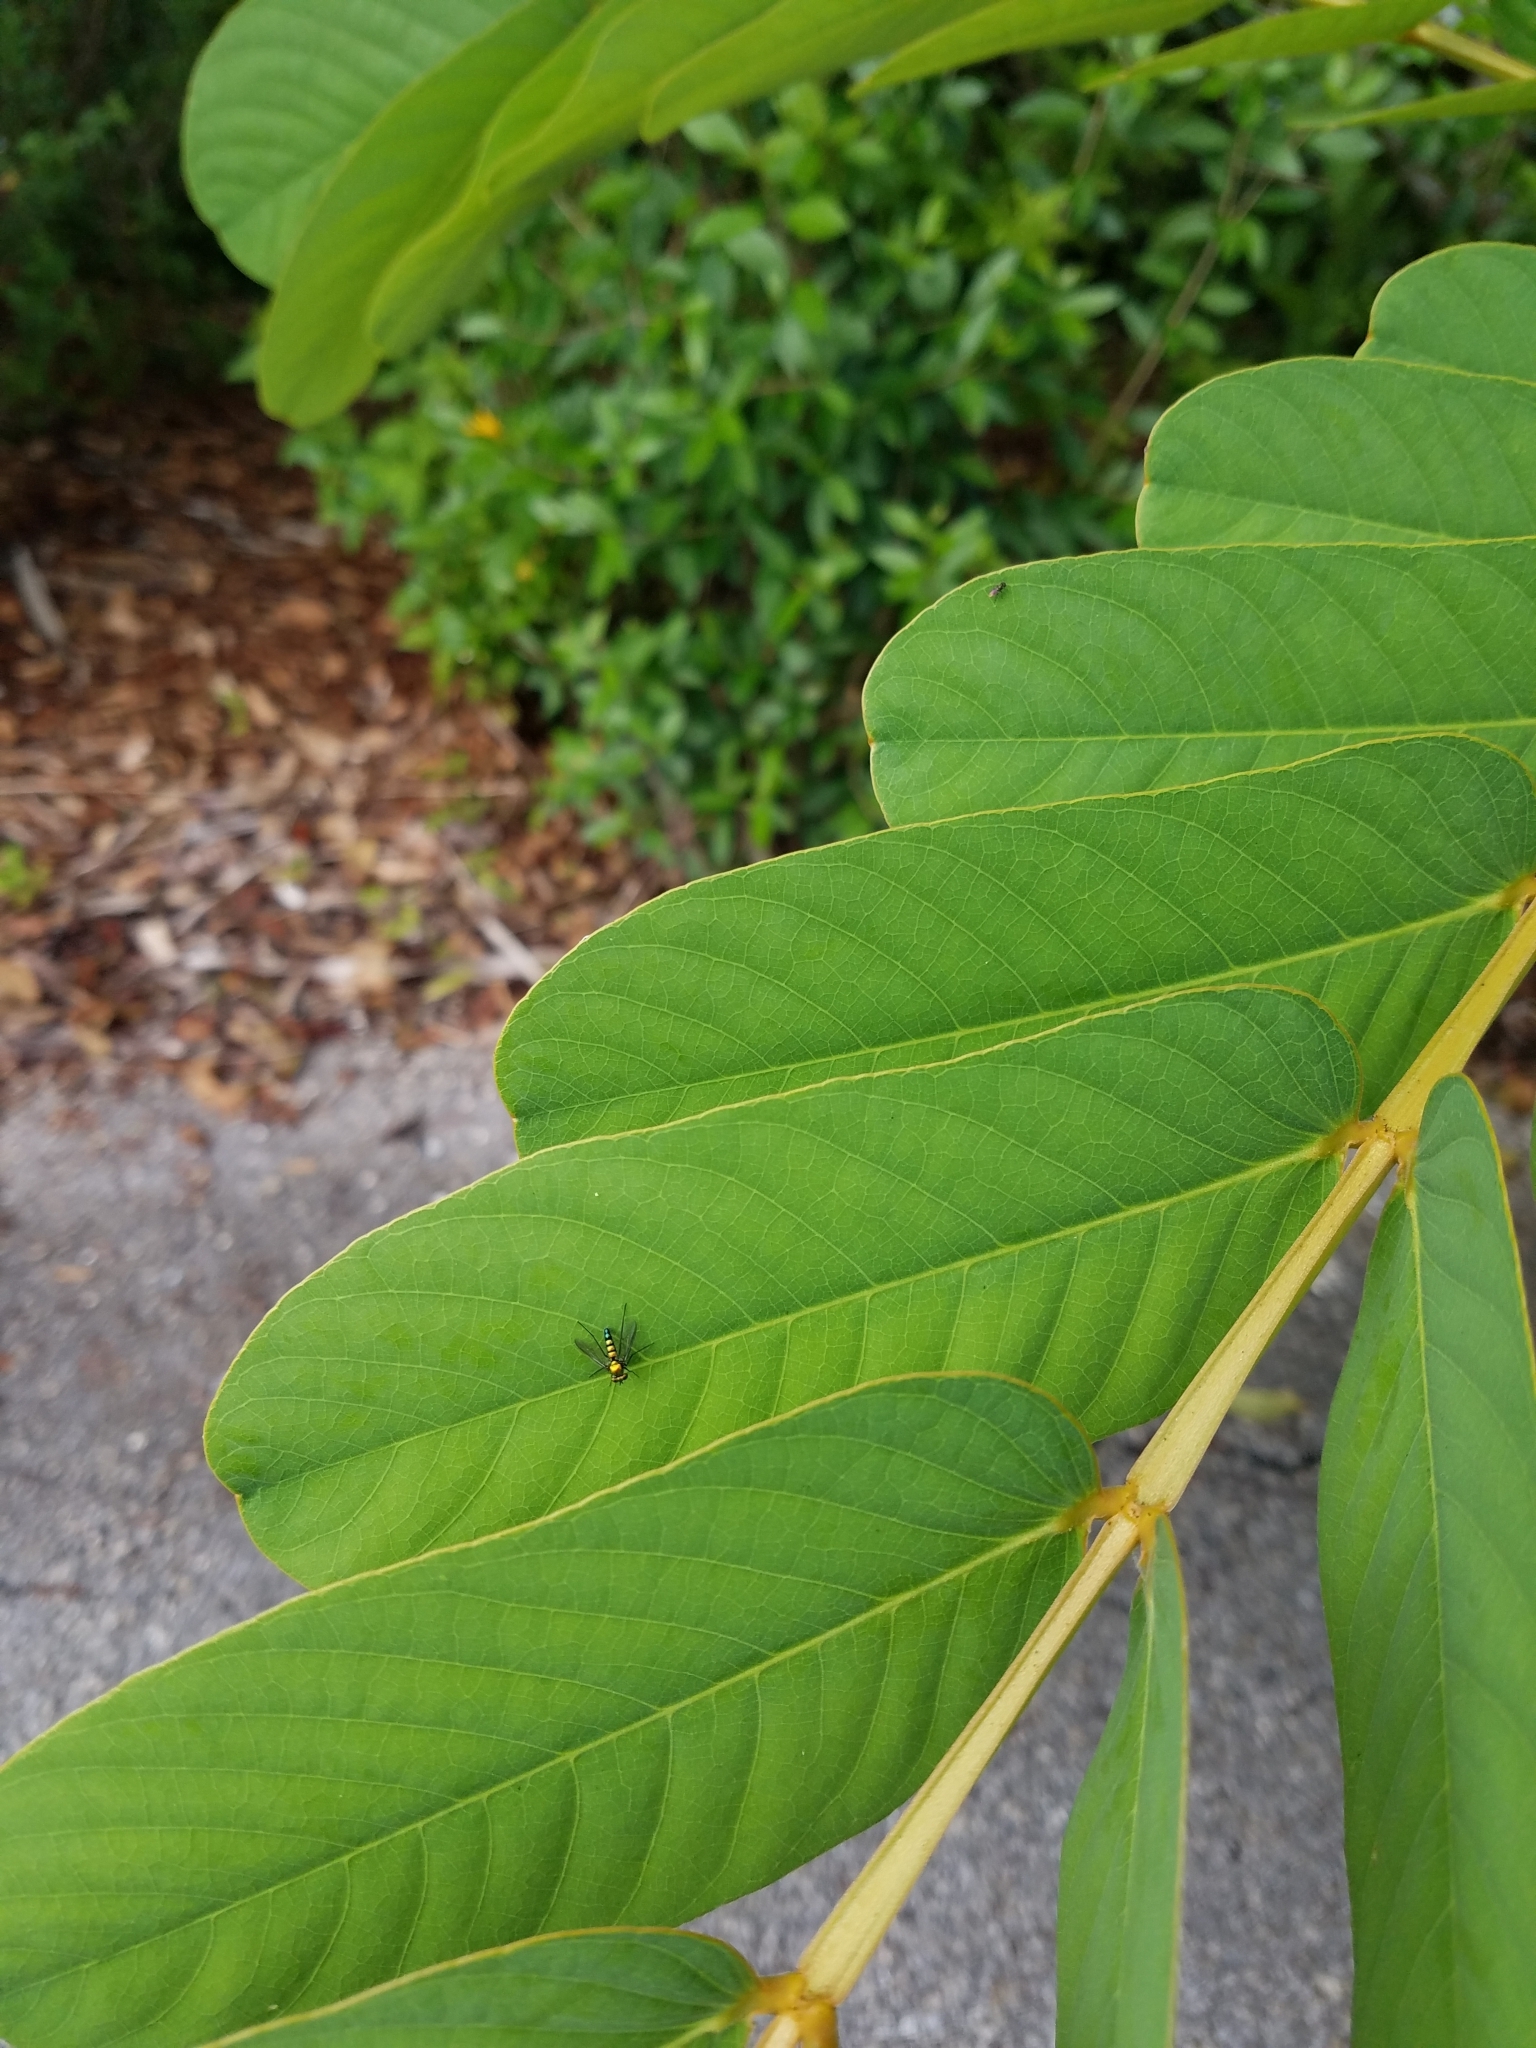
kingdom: Animalia
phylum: Arthropoda
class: Insecta
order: Diptera
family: Dolichopodidae
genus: Condylostylus
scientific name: Condylostylus mundus
